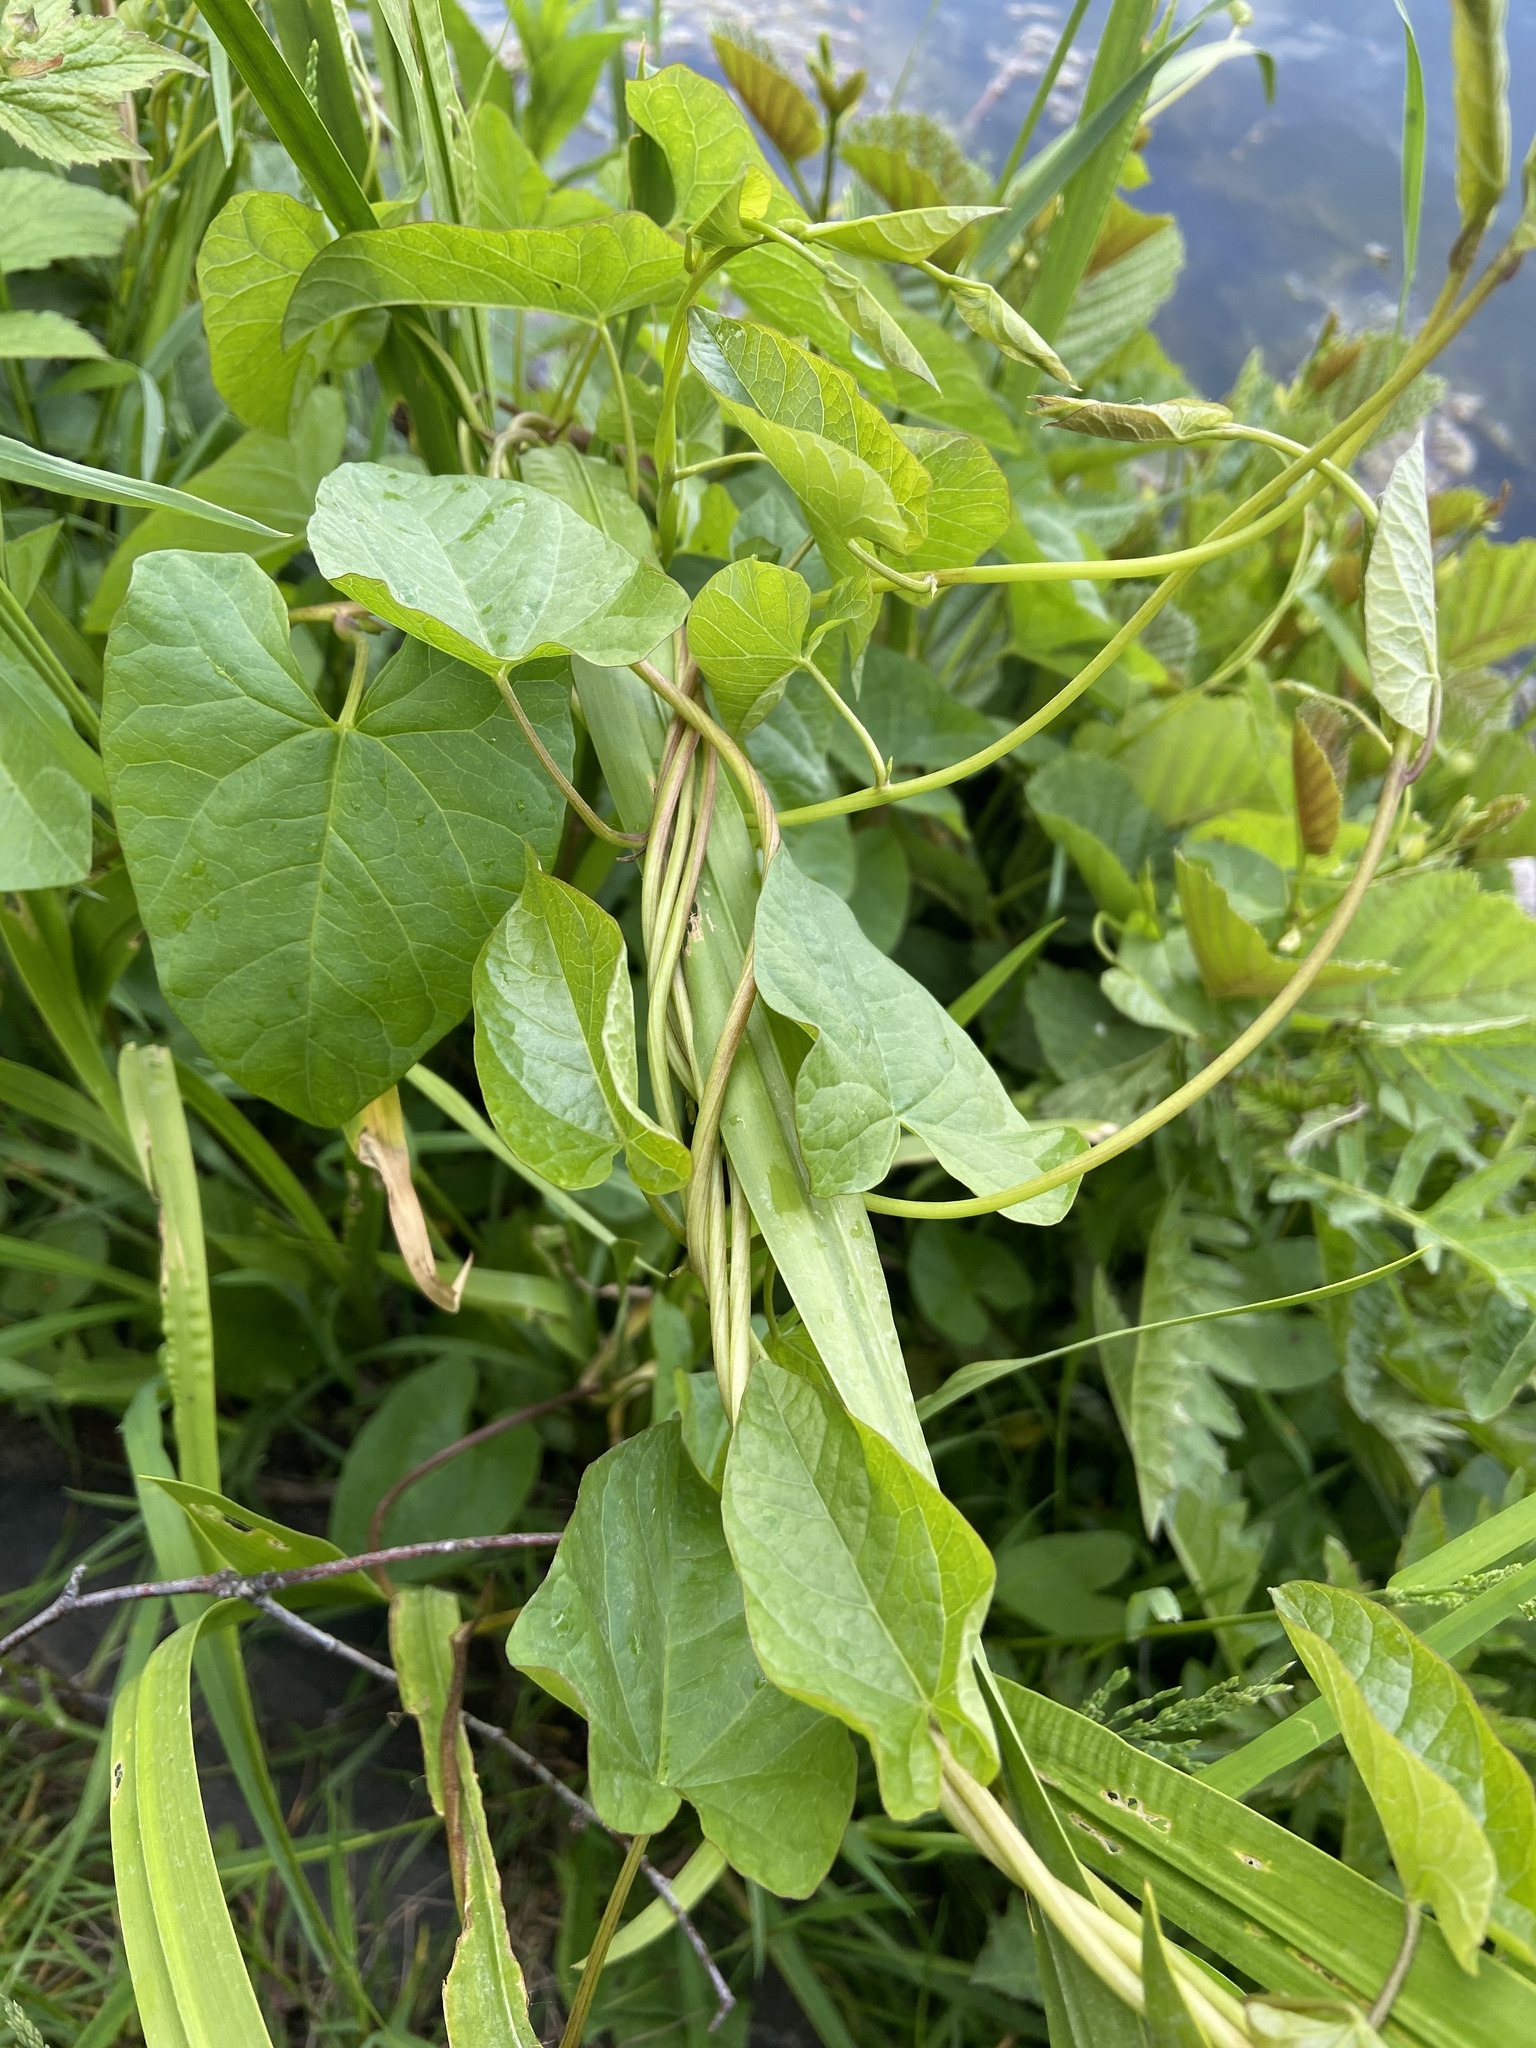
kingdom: Plantae
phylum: Tracheophyta
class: Magnoliopsida
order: Solanales
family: Convolvulaceae
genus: Calystegia
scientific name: Calystegia sepium
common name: Hedge bindweed
